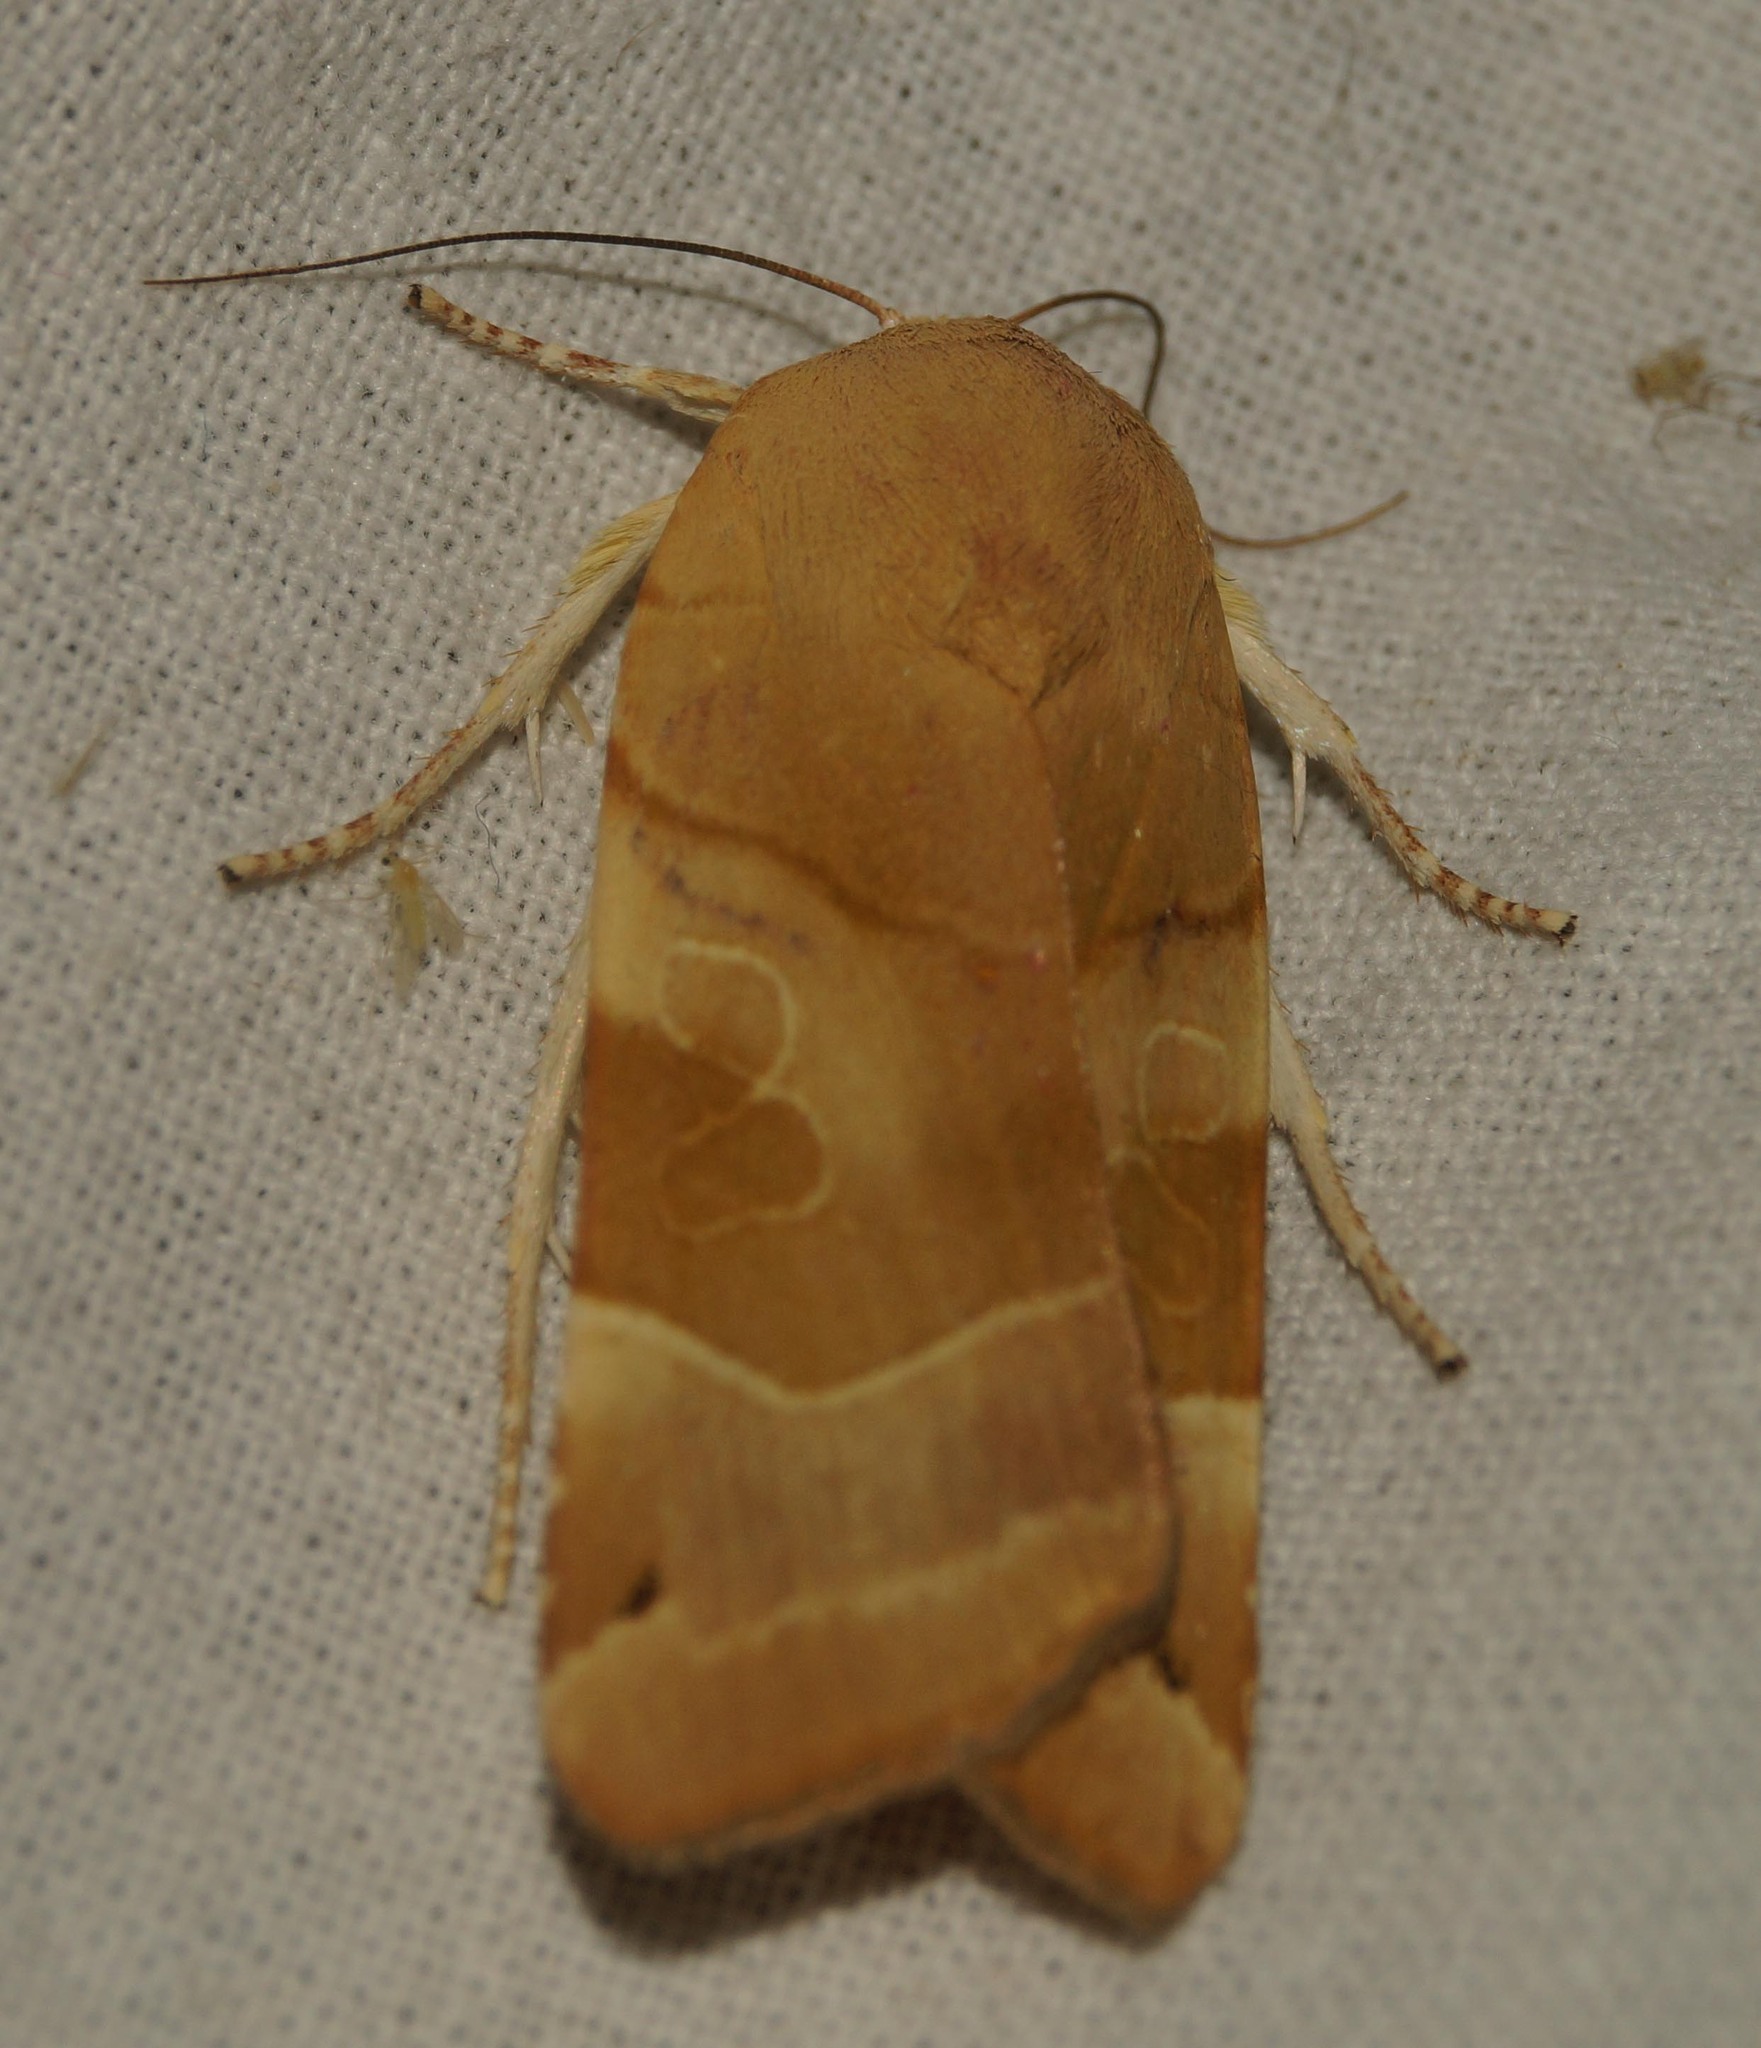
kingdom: Animalia
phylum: Arthropoda
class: Insecta
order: Lepidoptera
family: Noctuidae
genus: Noctua
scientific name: Noctua fimbriata
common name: Broad-bordered yellow underwing
